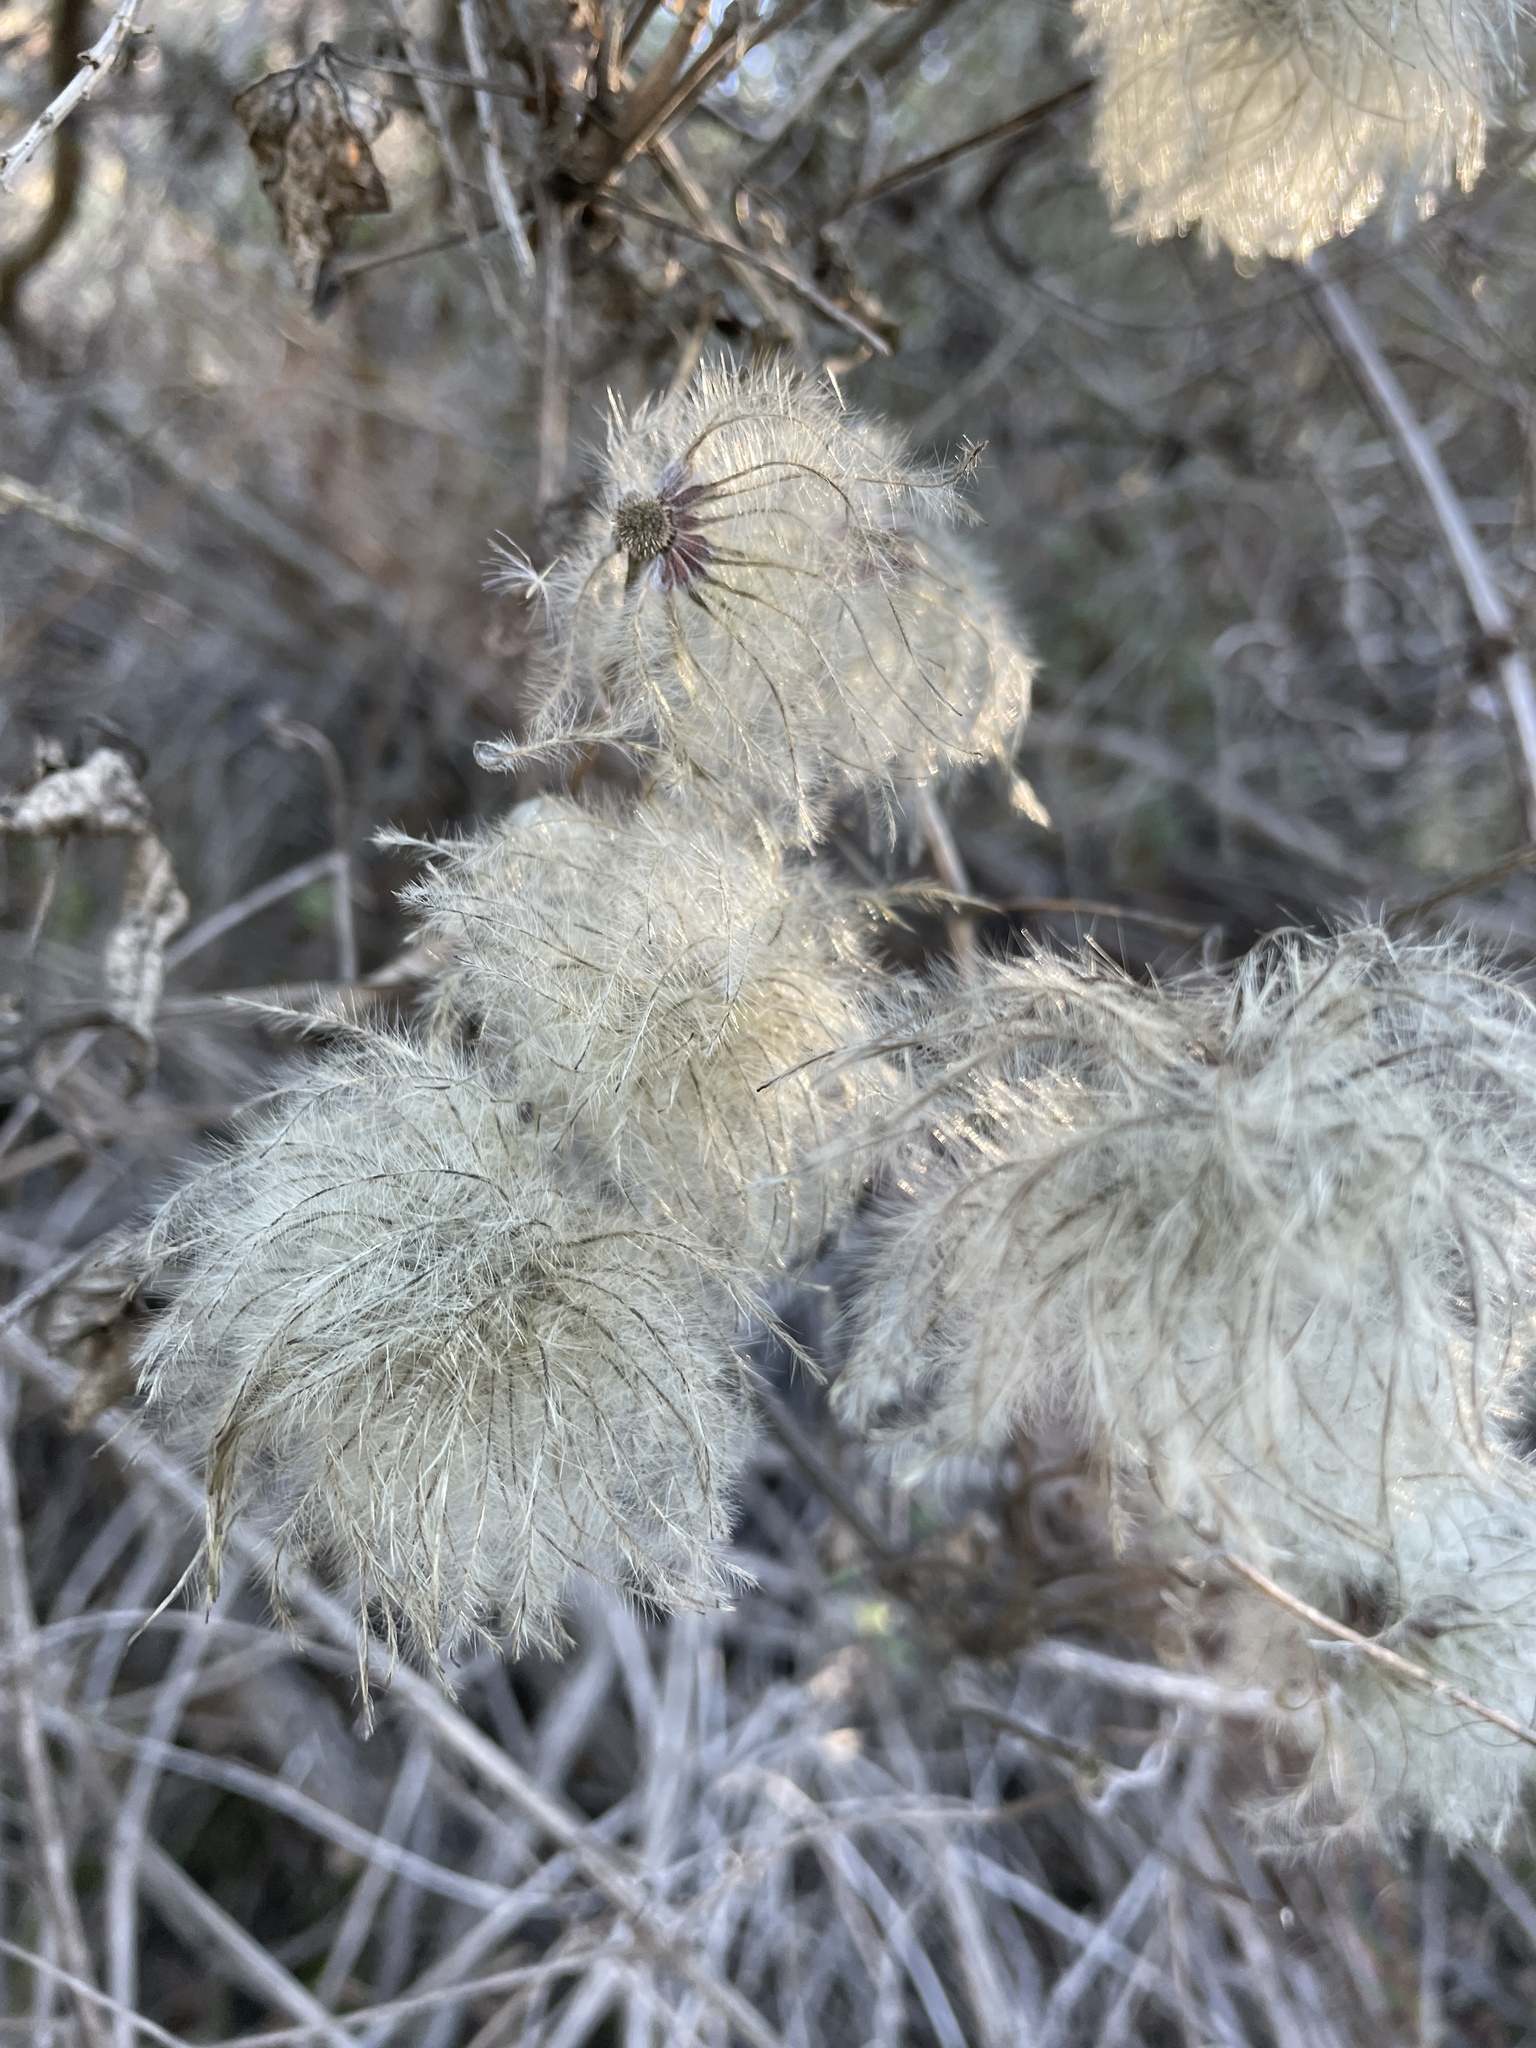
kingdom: Plantae
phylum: Tracheophyta
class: Magnoliopsida
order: Ranunculales
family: Ranunculaceae
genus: Clematis
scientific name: Clematis lasiantha
